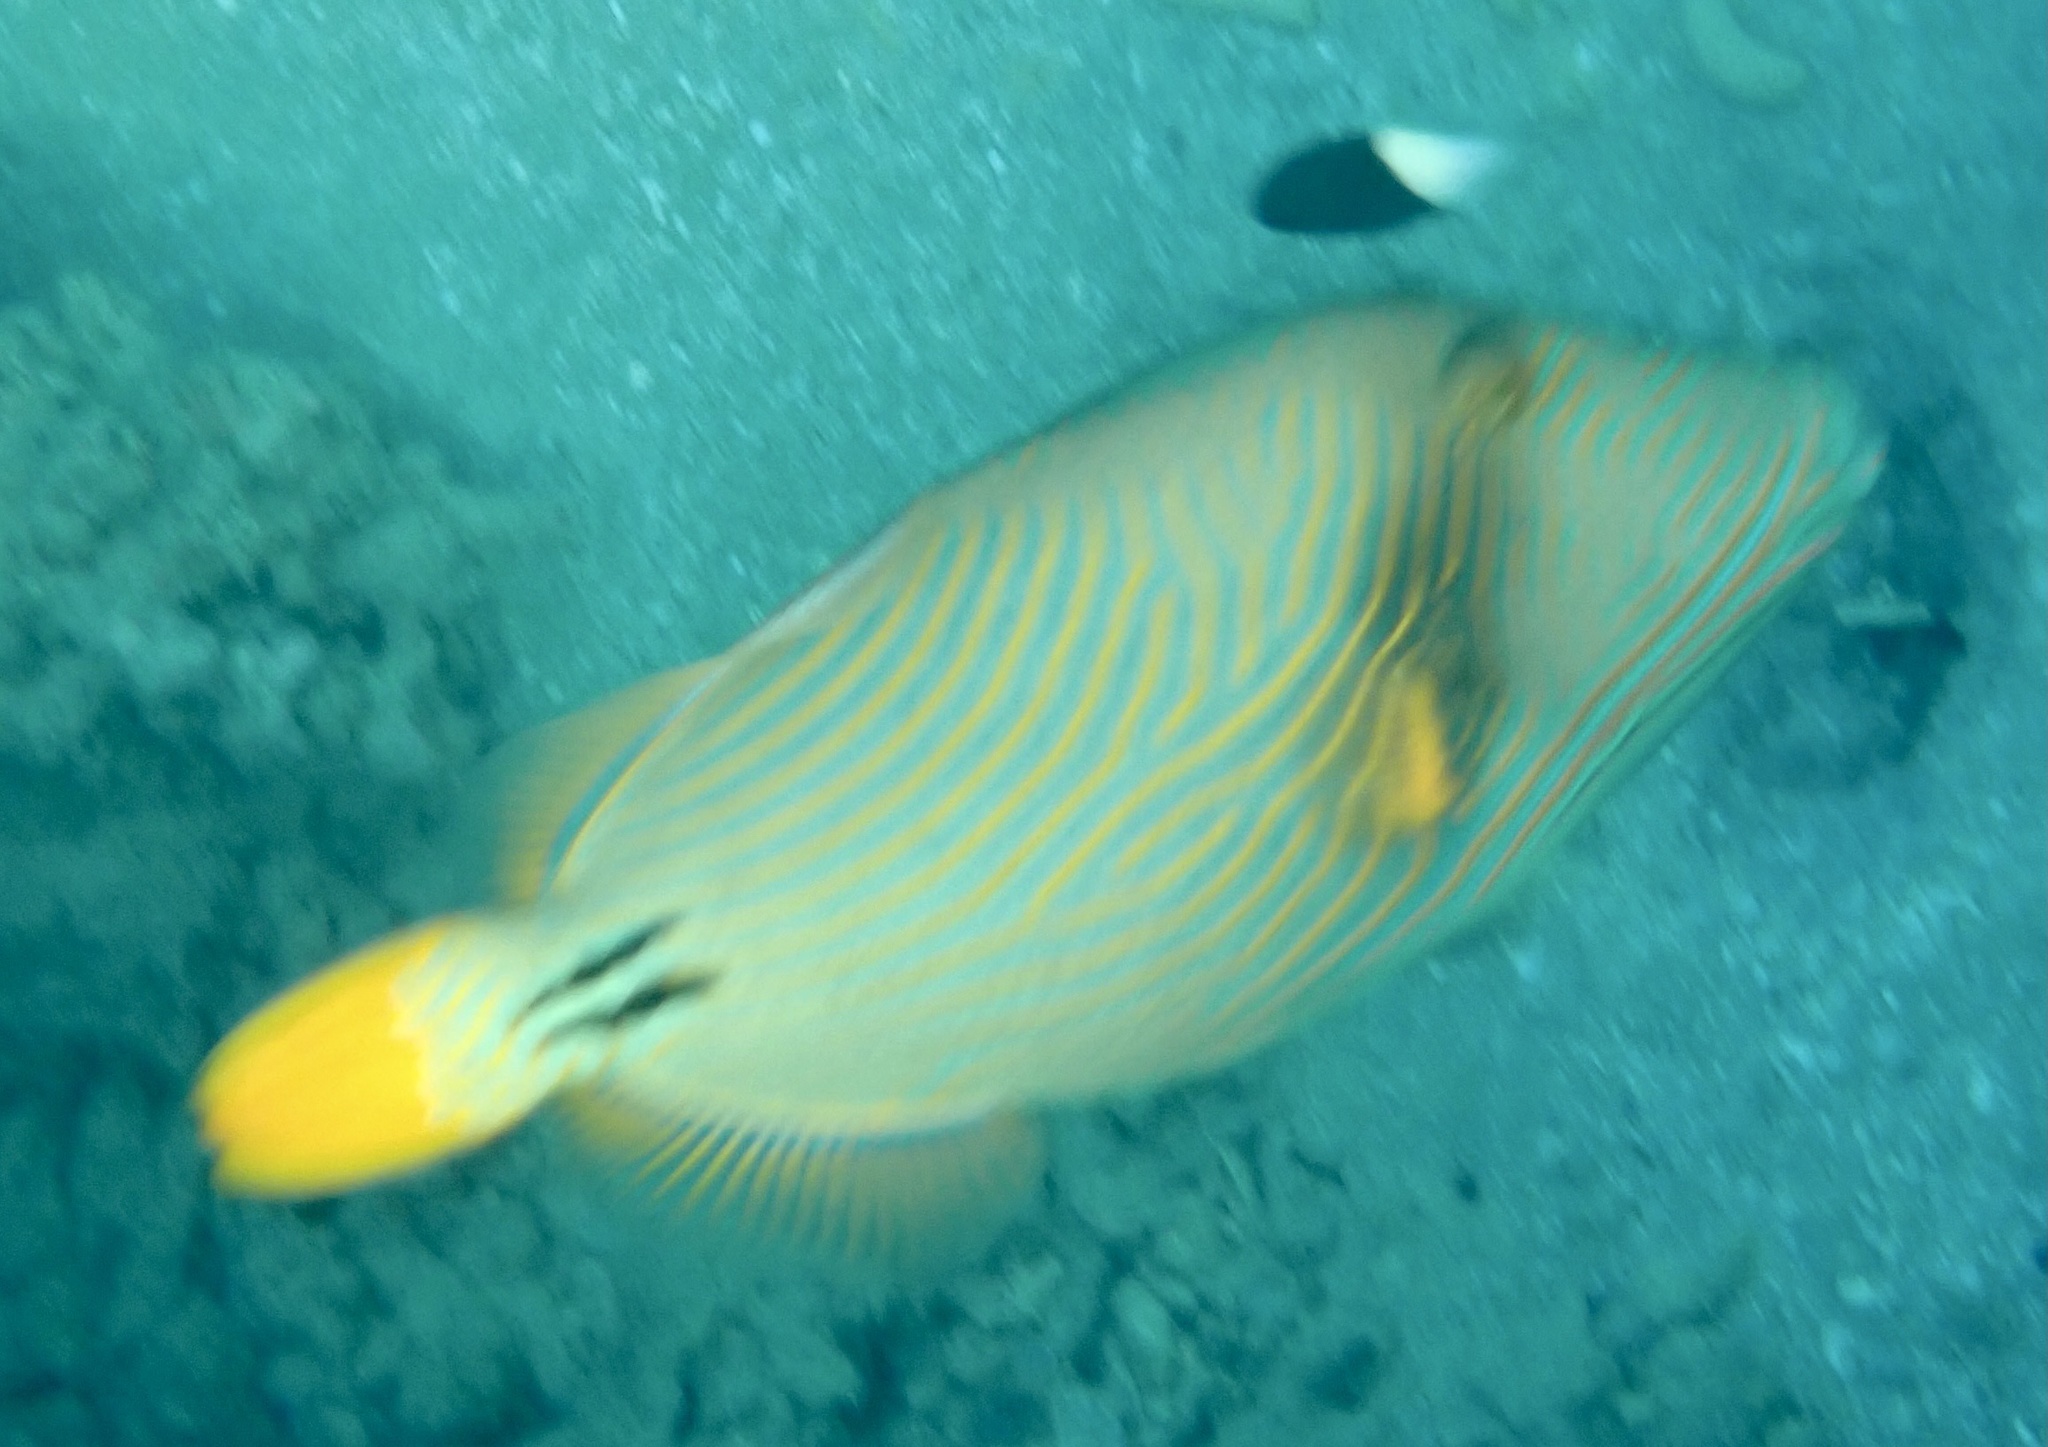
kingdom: Animalia
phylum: Chordata
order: Tetraodontiformes
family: Balistidae
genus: Balistapus
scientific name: Balistapus undulatus
